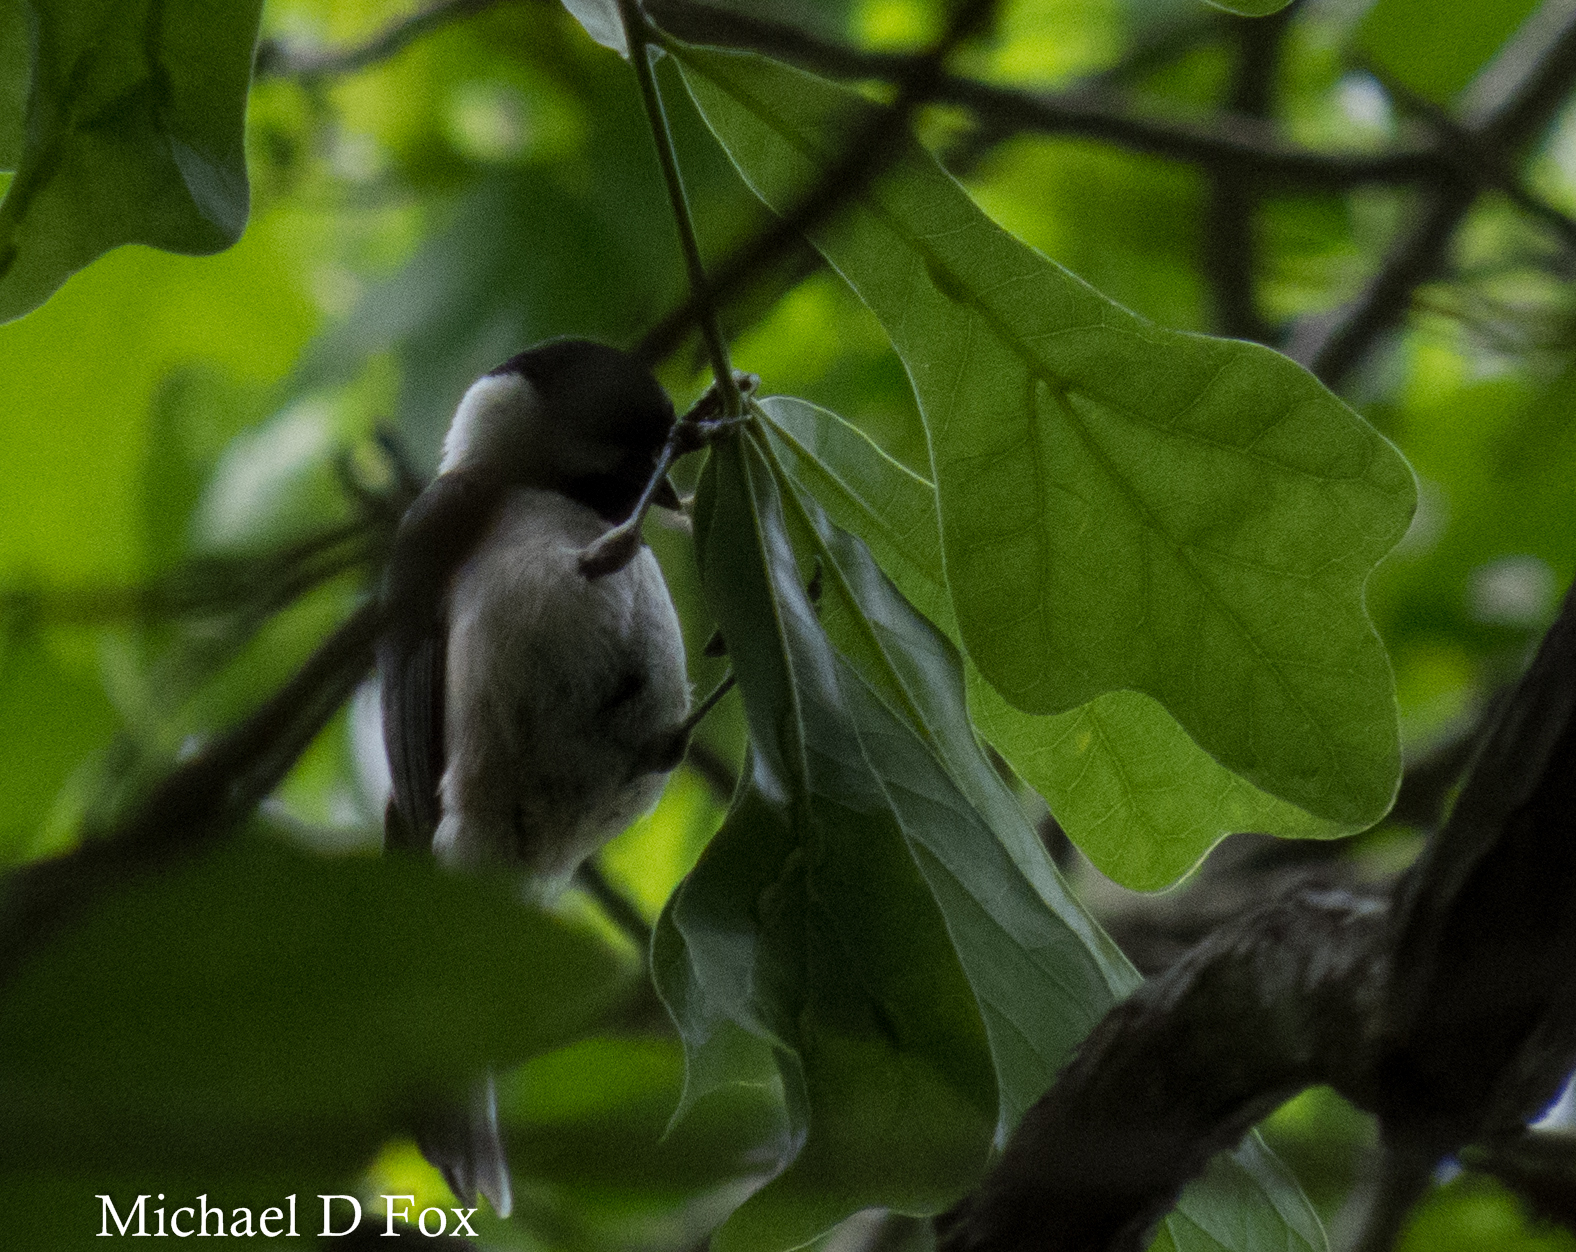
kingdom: Animalia
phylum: Chordata
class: Aves
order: Passeriformes
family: Paridae
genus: Poecile
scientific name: Poecile carolinensis
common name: Carolina chickadee
